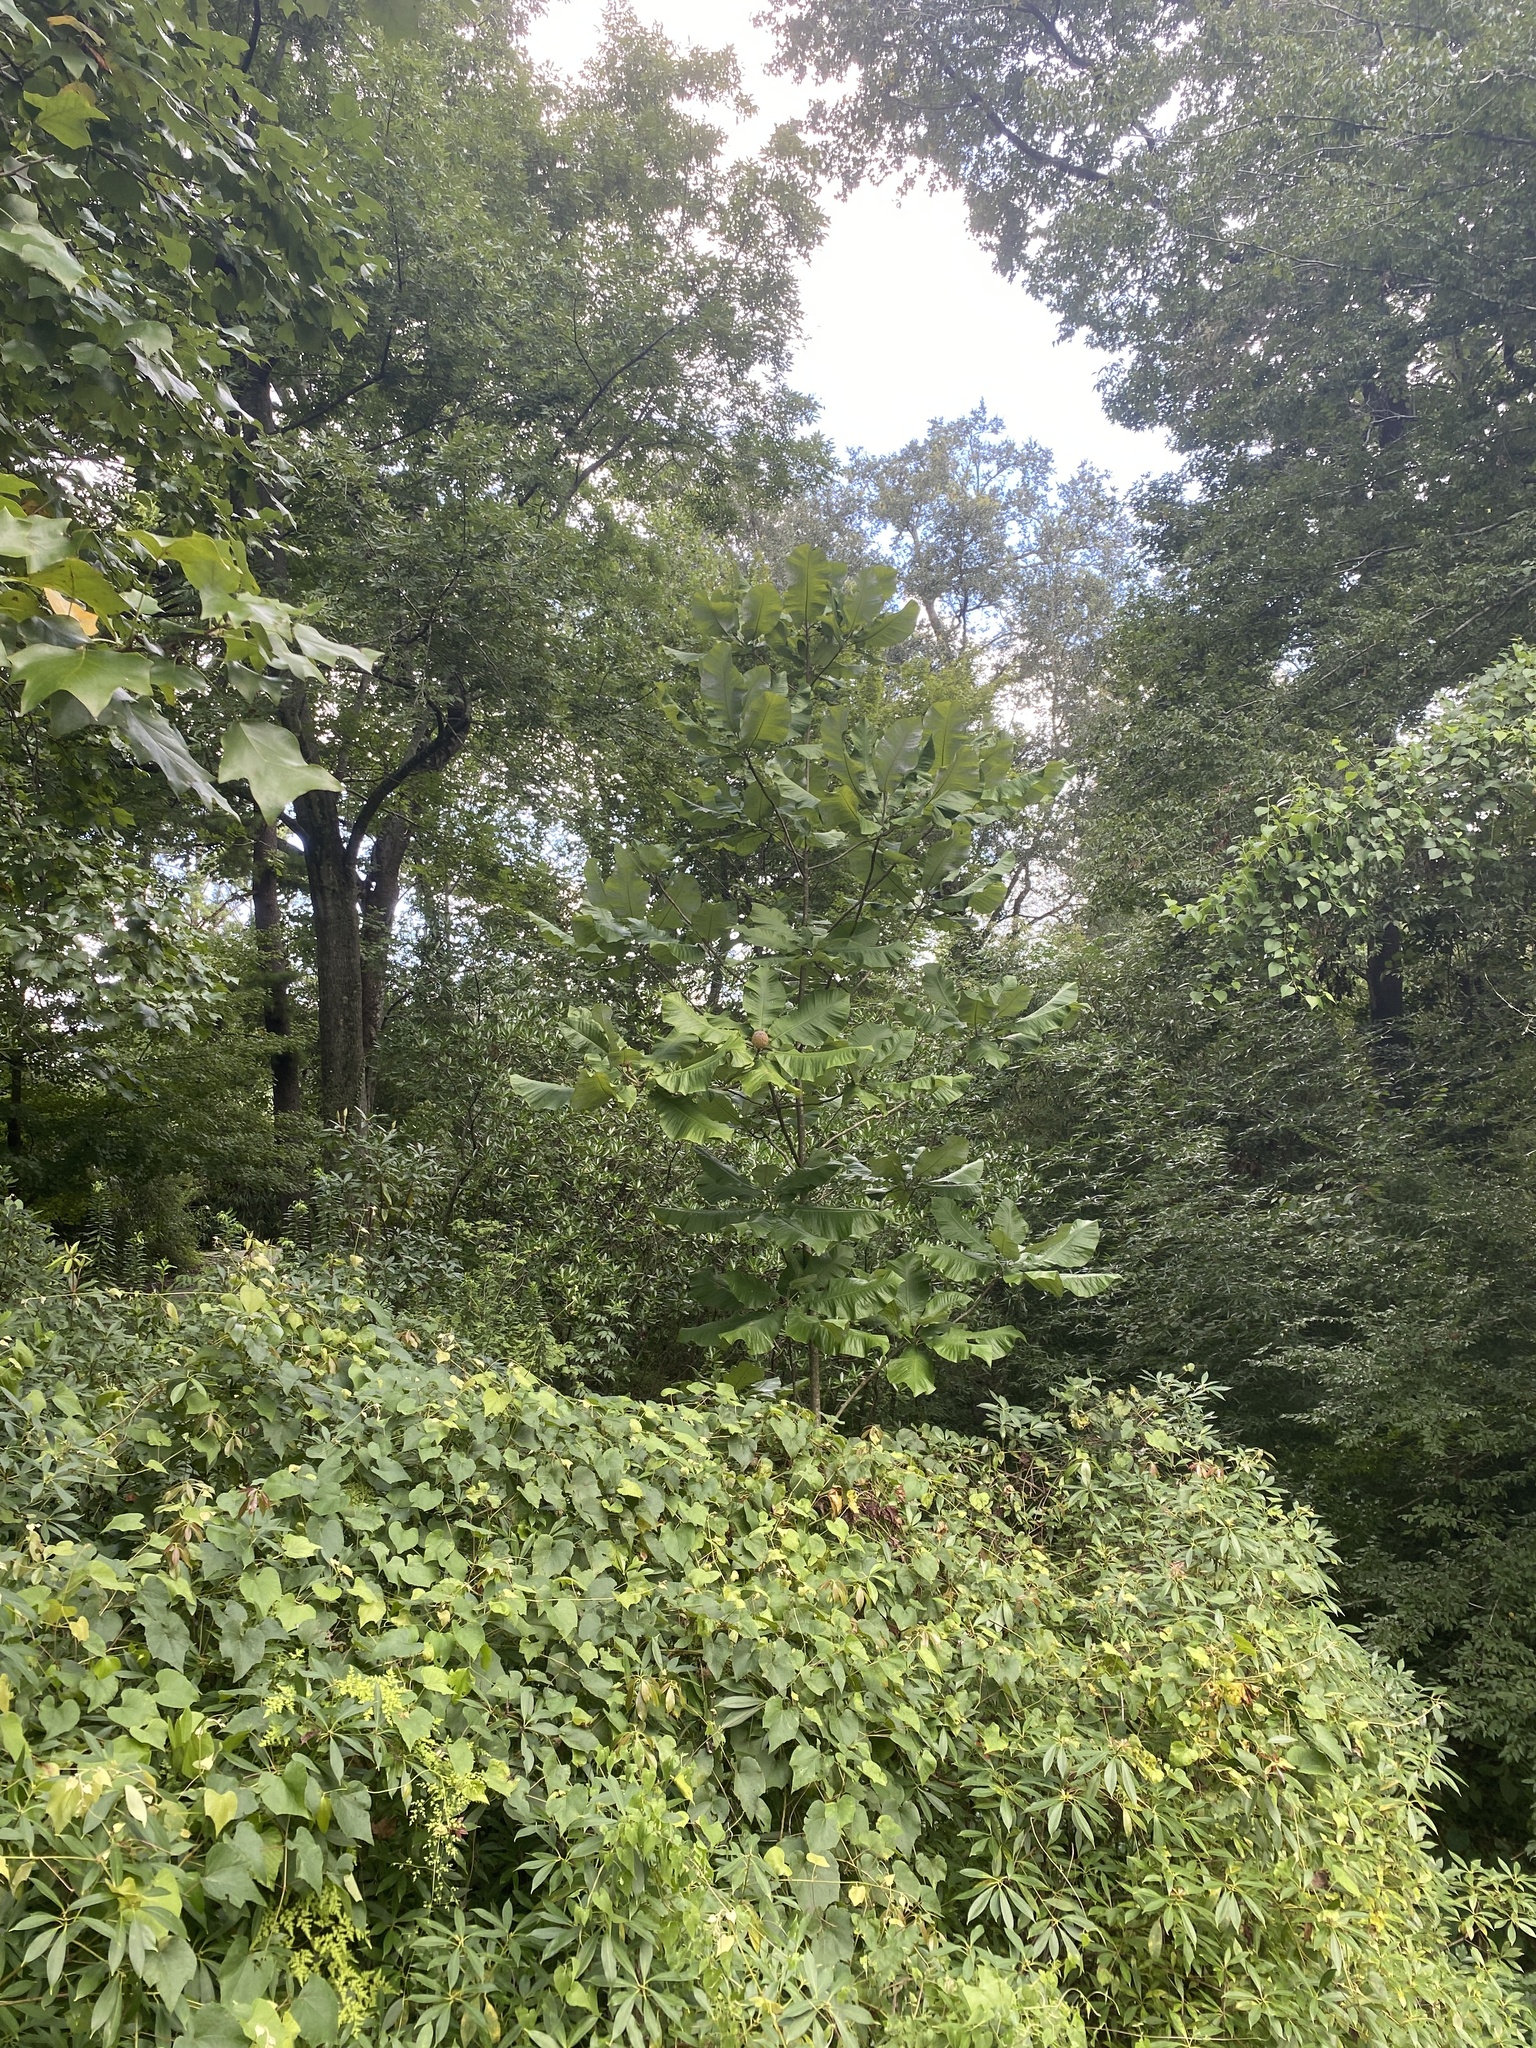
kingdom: Plantae
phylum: Tracheophyta
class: Magnoliopsida
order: Magnoliales
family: Magnoliaceae
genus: Magnolia
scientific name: Magnolia macrophylla
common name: Big-leaf magnolia
